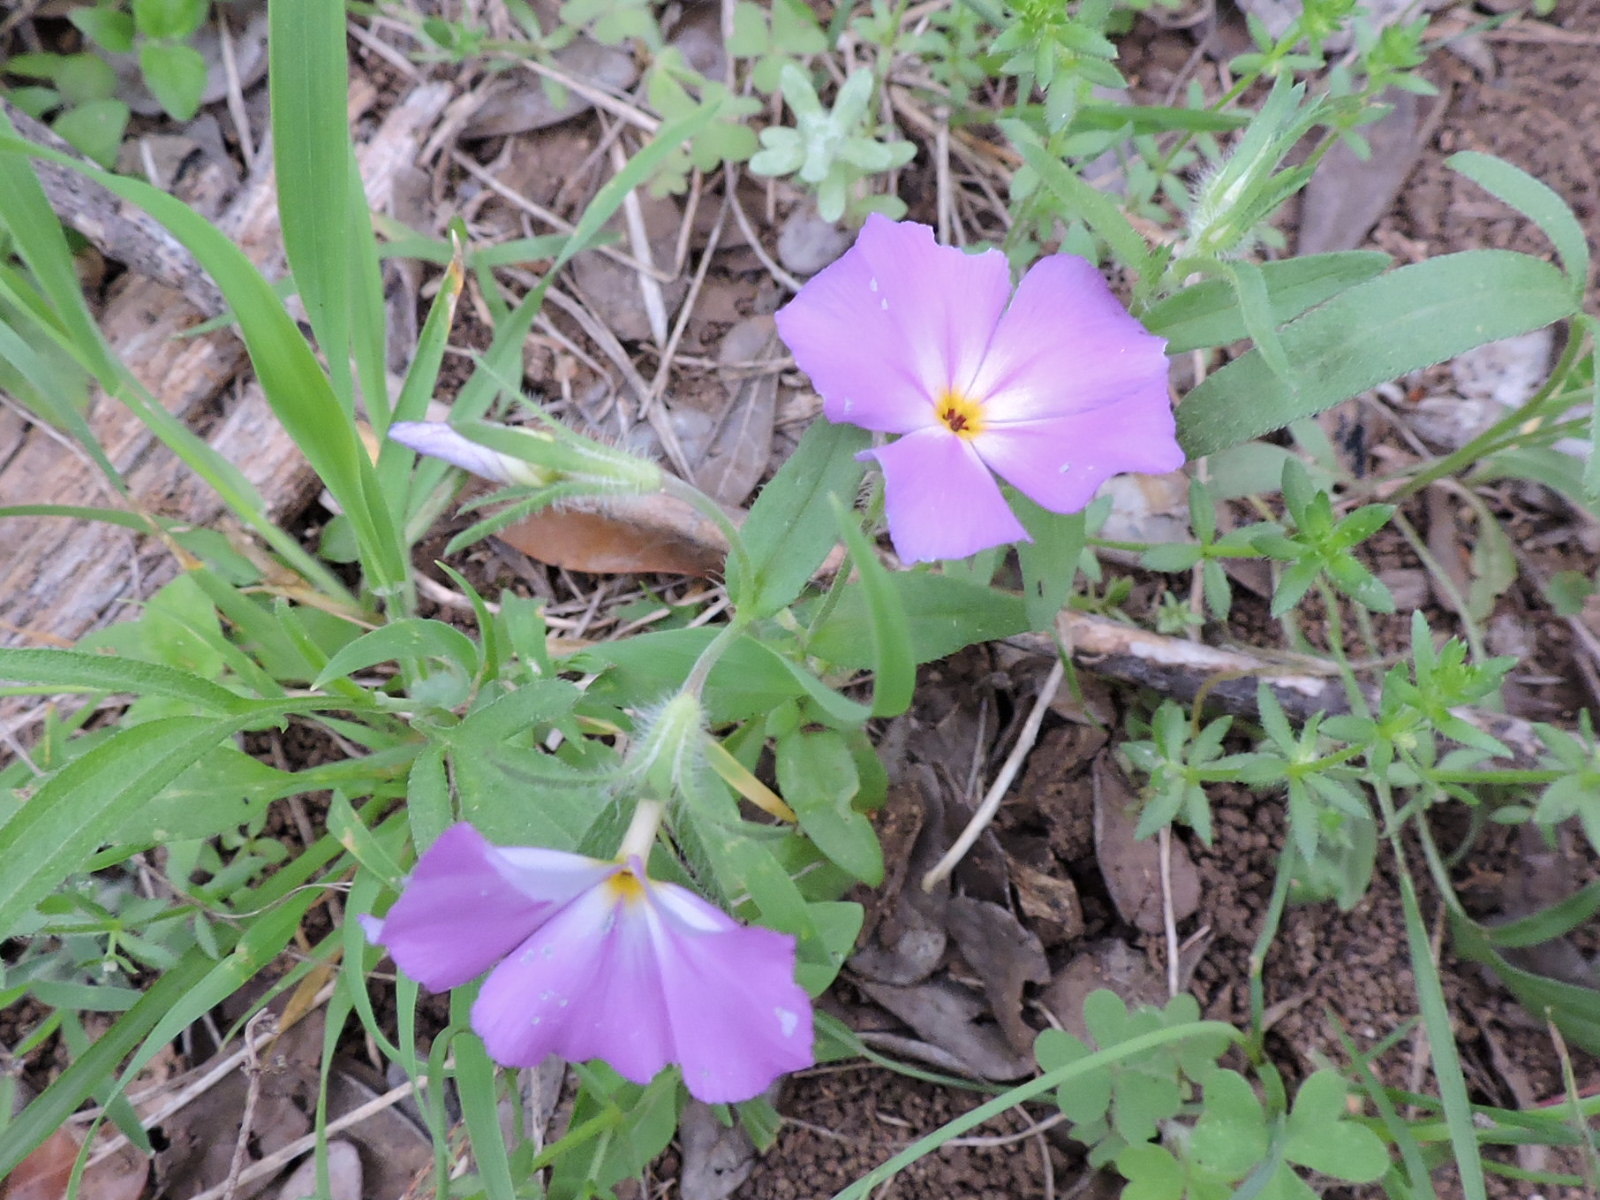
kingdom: Plantae
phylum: Tracheophyta
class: Magnoliopsida
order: Ericales
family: Polemoniaceae
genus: Phlox
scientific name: Phlox roemeriana
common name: Roemer's phlox
